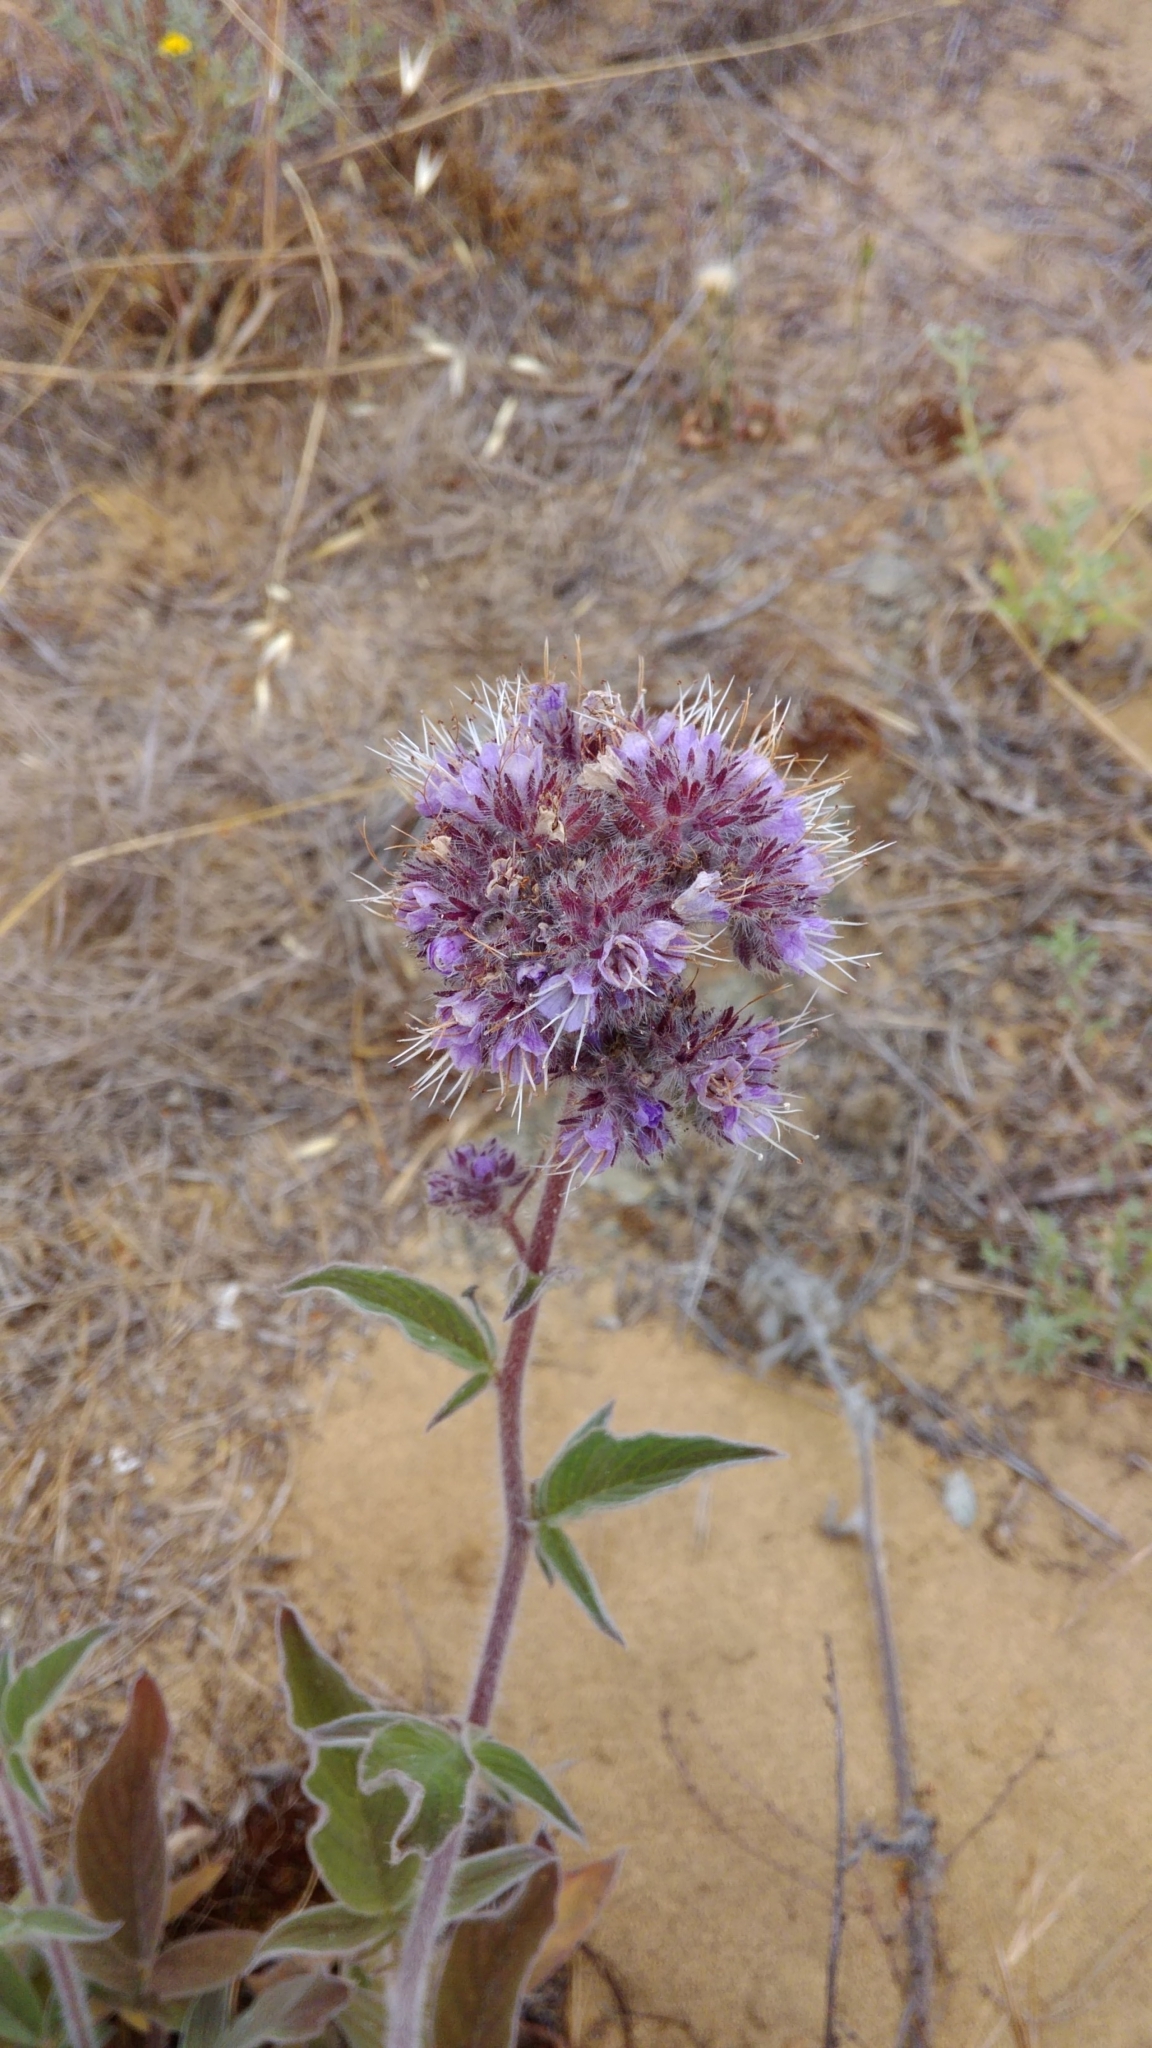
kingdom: Plantae
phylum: Tracheophyta
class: Magnoliopsida
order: Boraginales
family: Hydrophyllaceae
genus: Phacelia
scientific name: Phacelia californica
